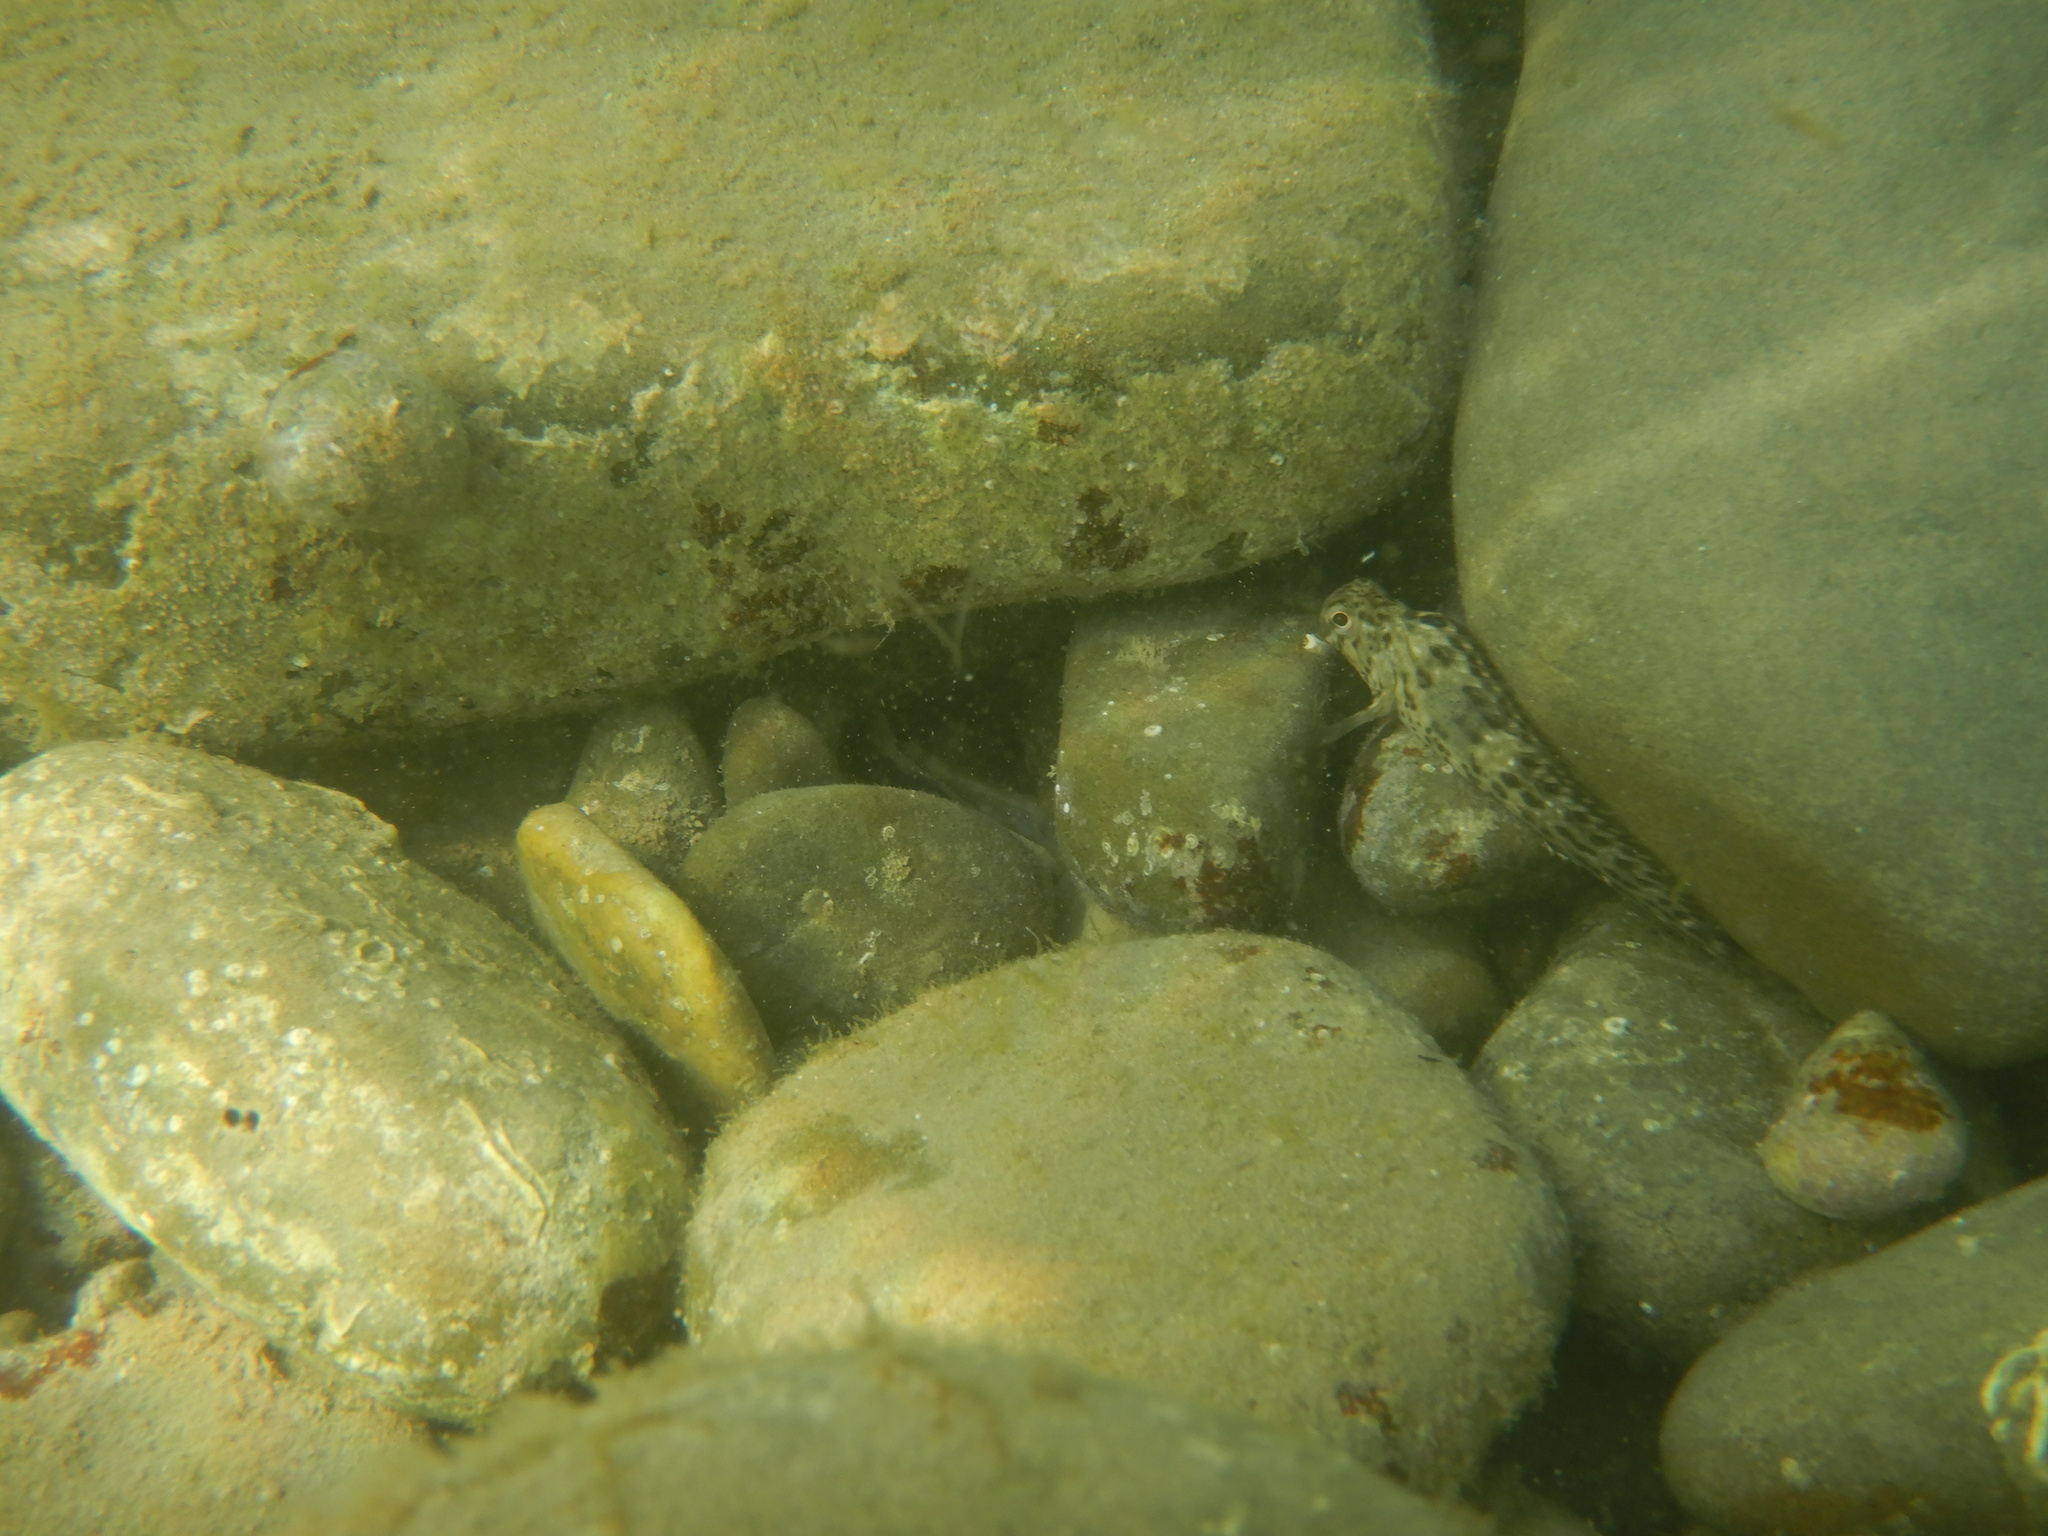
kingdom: Animalia
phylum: Chordata
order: Perciformes
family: Blenniidae
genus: Parablennius
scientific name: Parablennius sanguinolentus
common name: Black sea blenny
